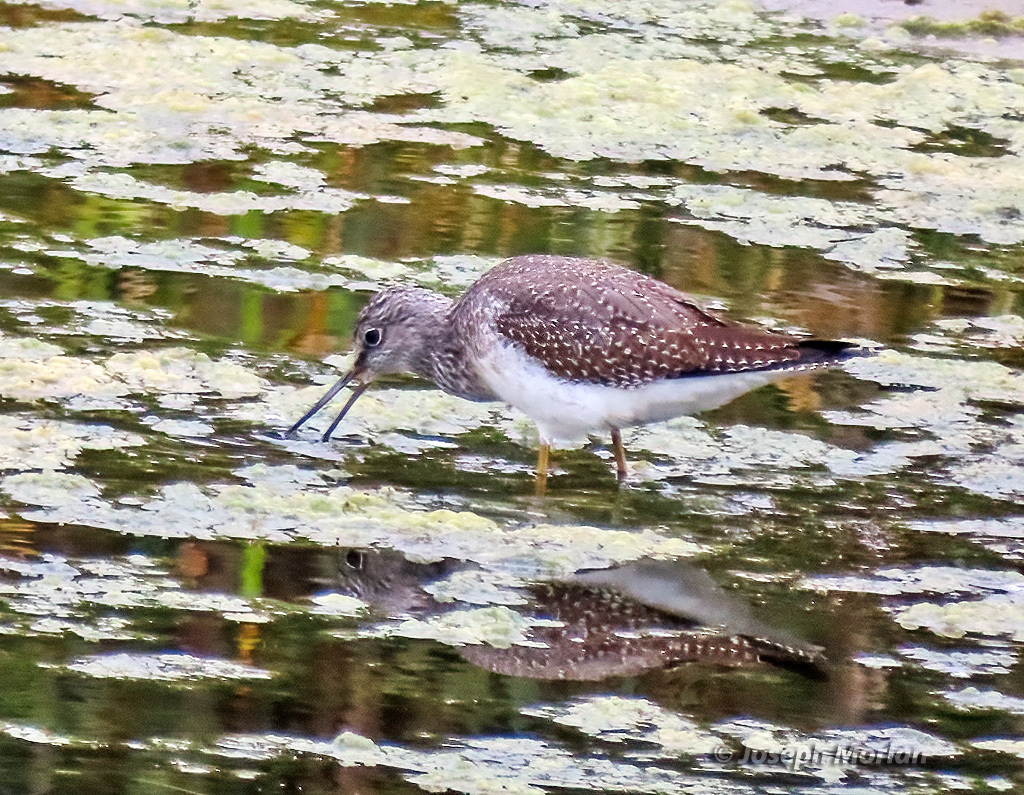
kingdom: Animalia
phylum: Chordata
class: Aves
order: Charadriiformes
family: Scolopacidae
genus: Tringa
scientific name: Tringa melanoleuca
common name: Greater yellowlegs
